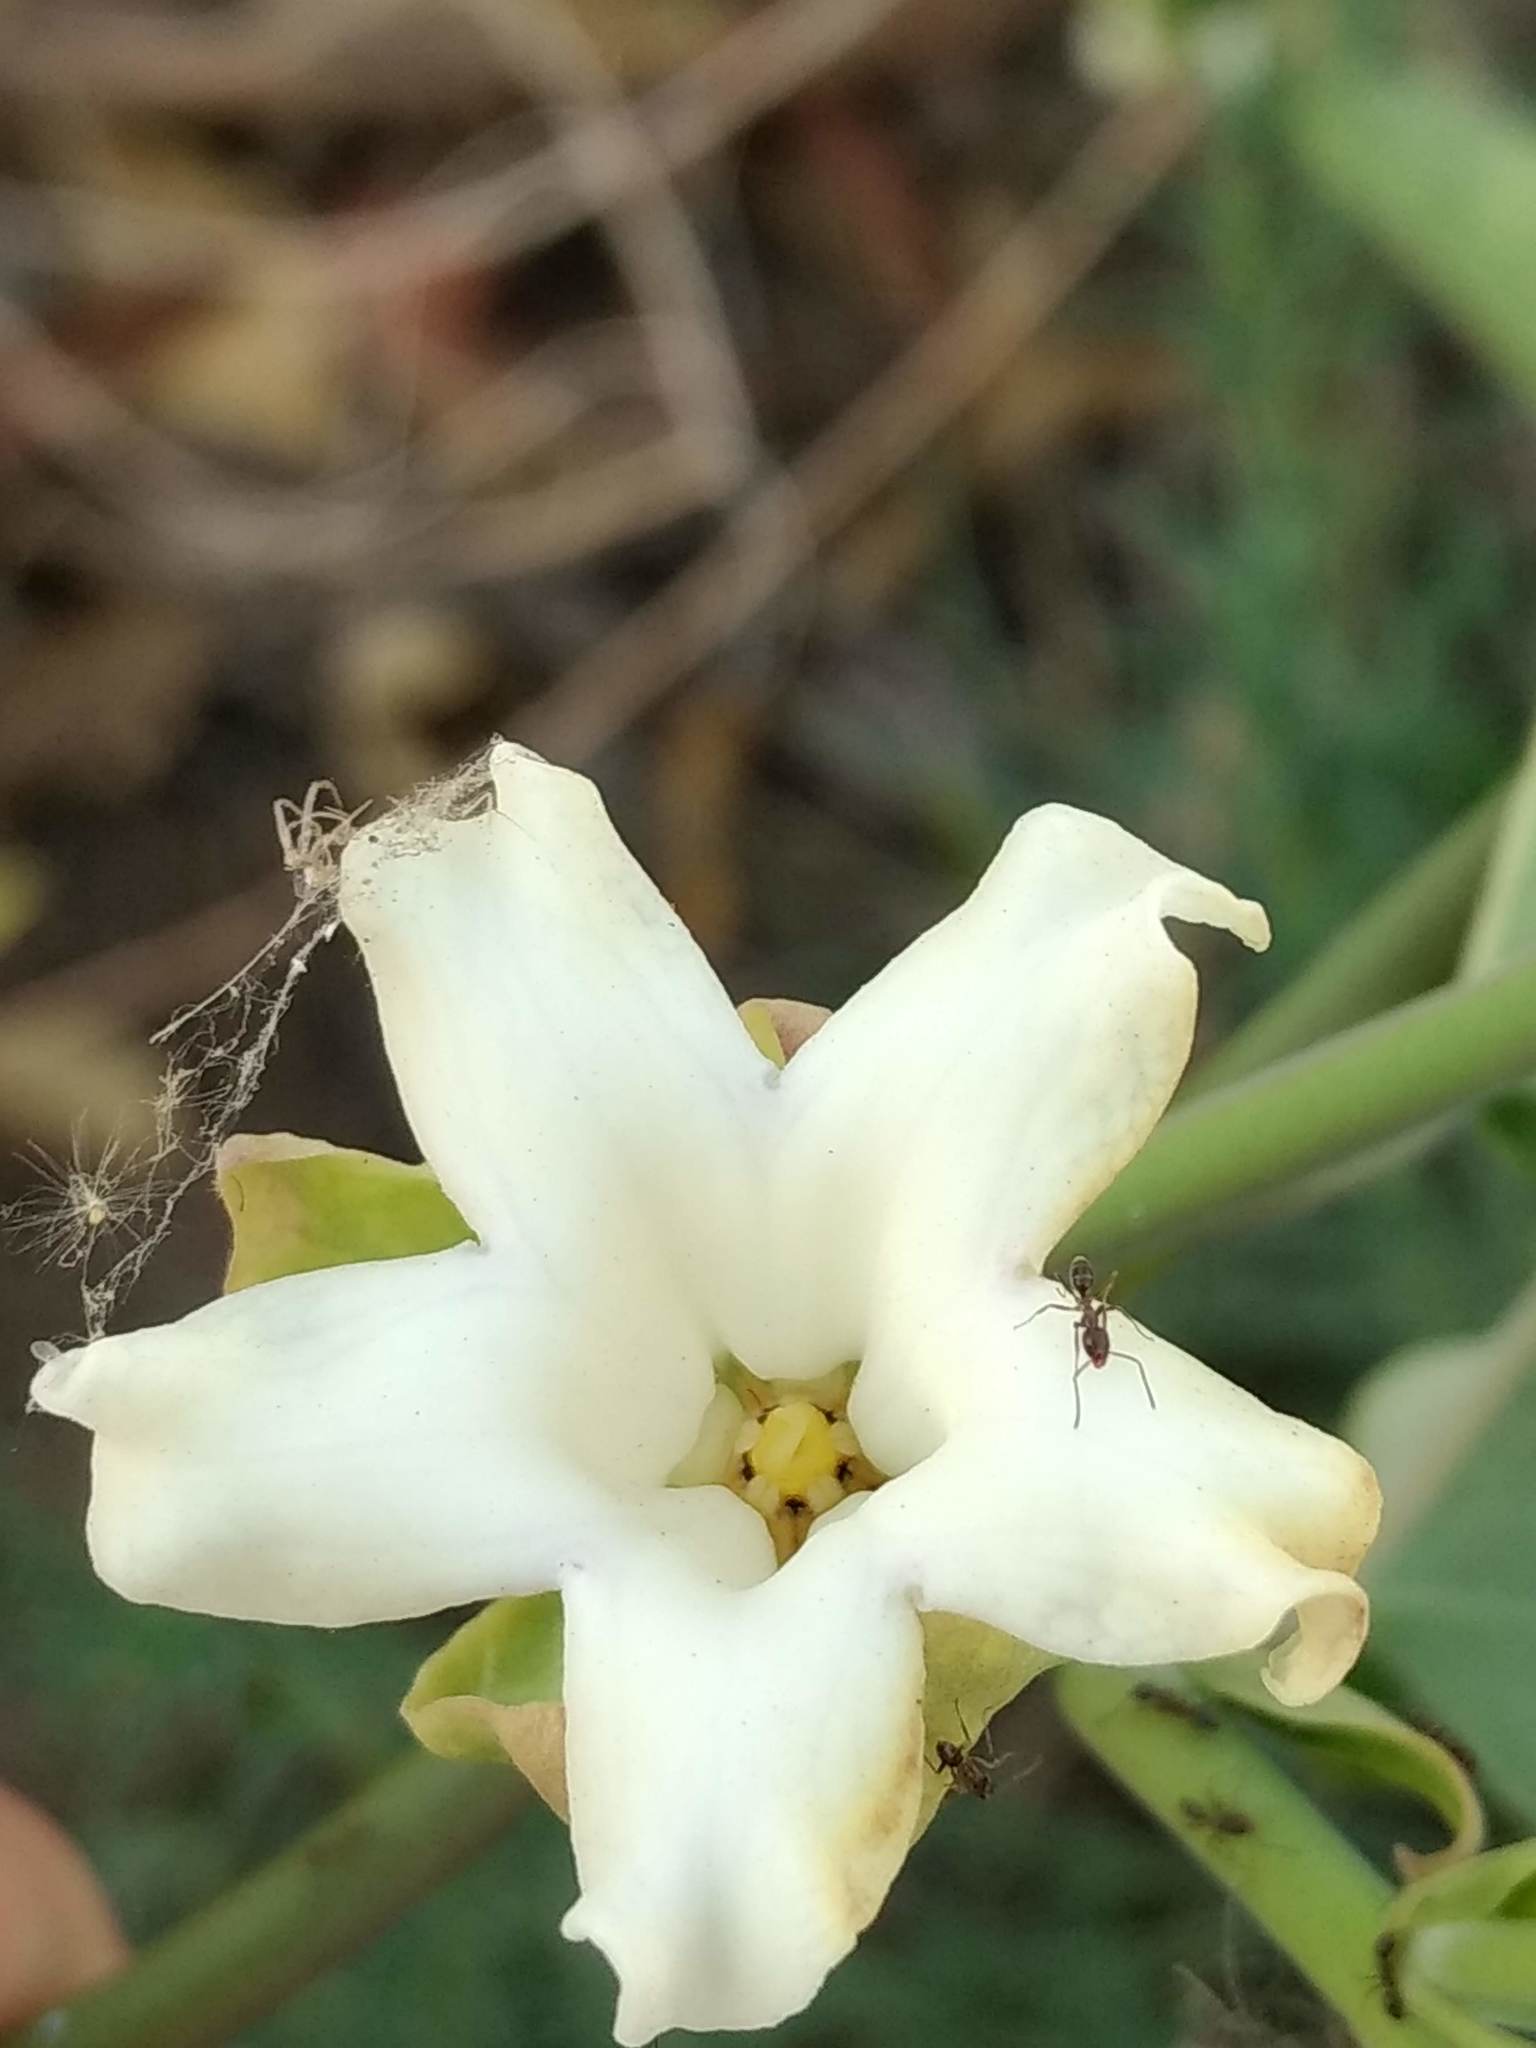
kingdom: Plantae
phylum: Tracheophyta
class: Magnoliopsida
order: Gentianales
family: Apocynaceae
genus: Araujia
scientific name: Araujia sericifera
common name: White bladderflower
